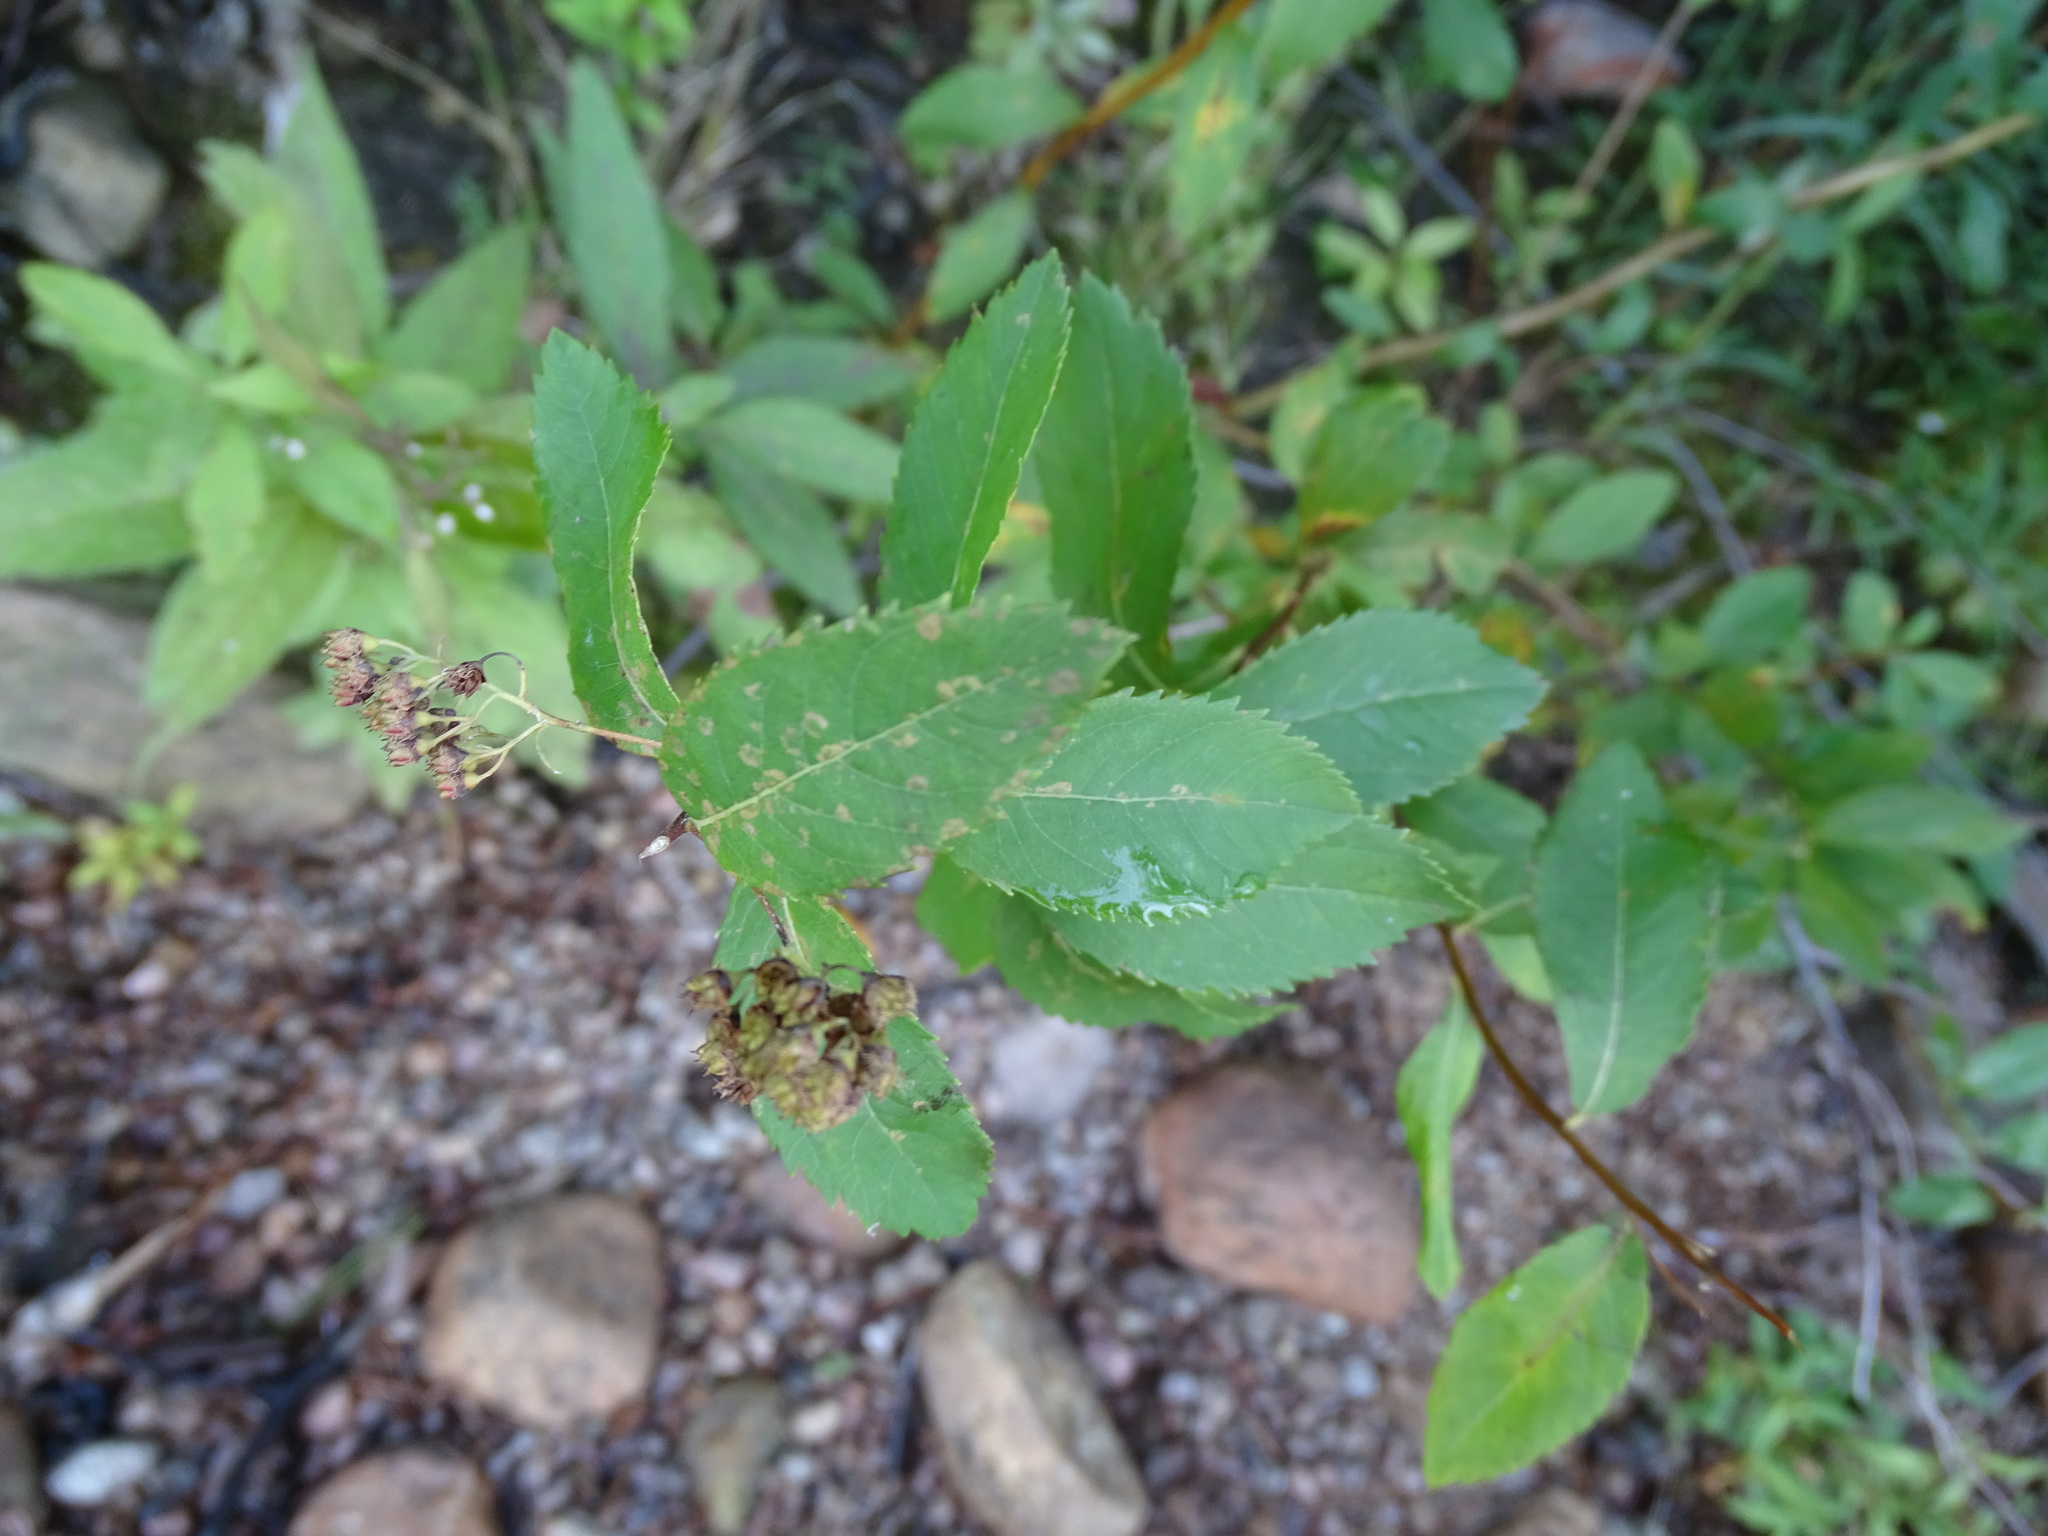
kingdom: Plantae
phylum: Tracheophyta
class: Magnoliopsida
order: Rosales
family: Rosaceae
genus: Spiraea
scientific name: Spiraea alba
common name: Pale bridewort
